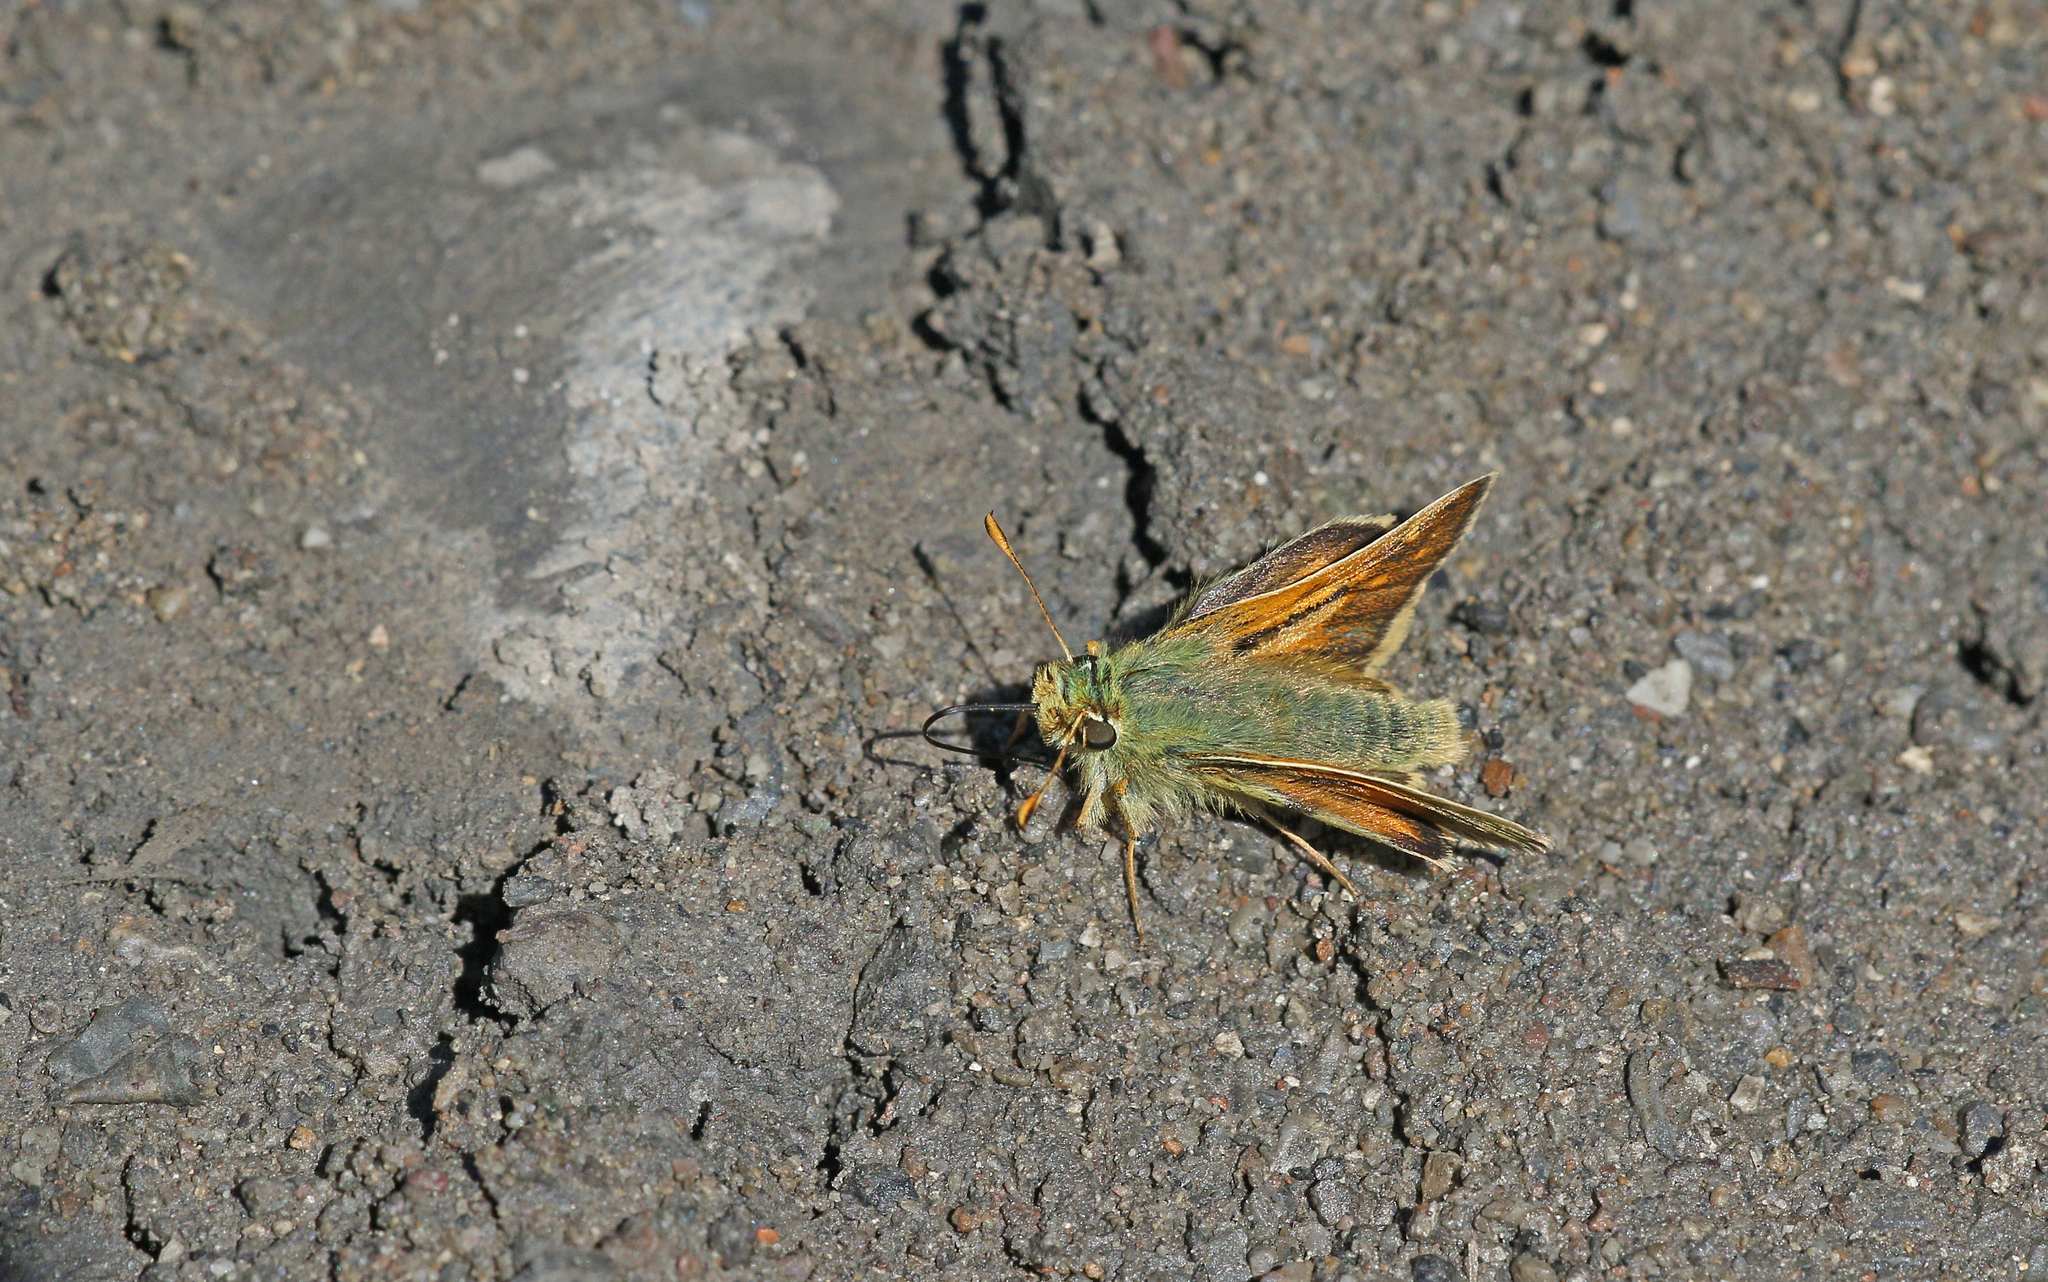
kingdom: Animalia
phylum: Arthropoda
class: Insecta
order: Lepidoptera
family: Hesperiidae
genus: Hesperia
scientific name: Hesperia comma
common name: Common branded skipper
